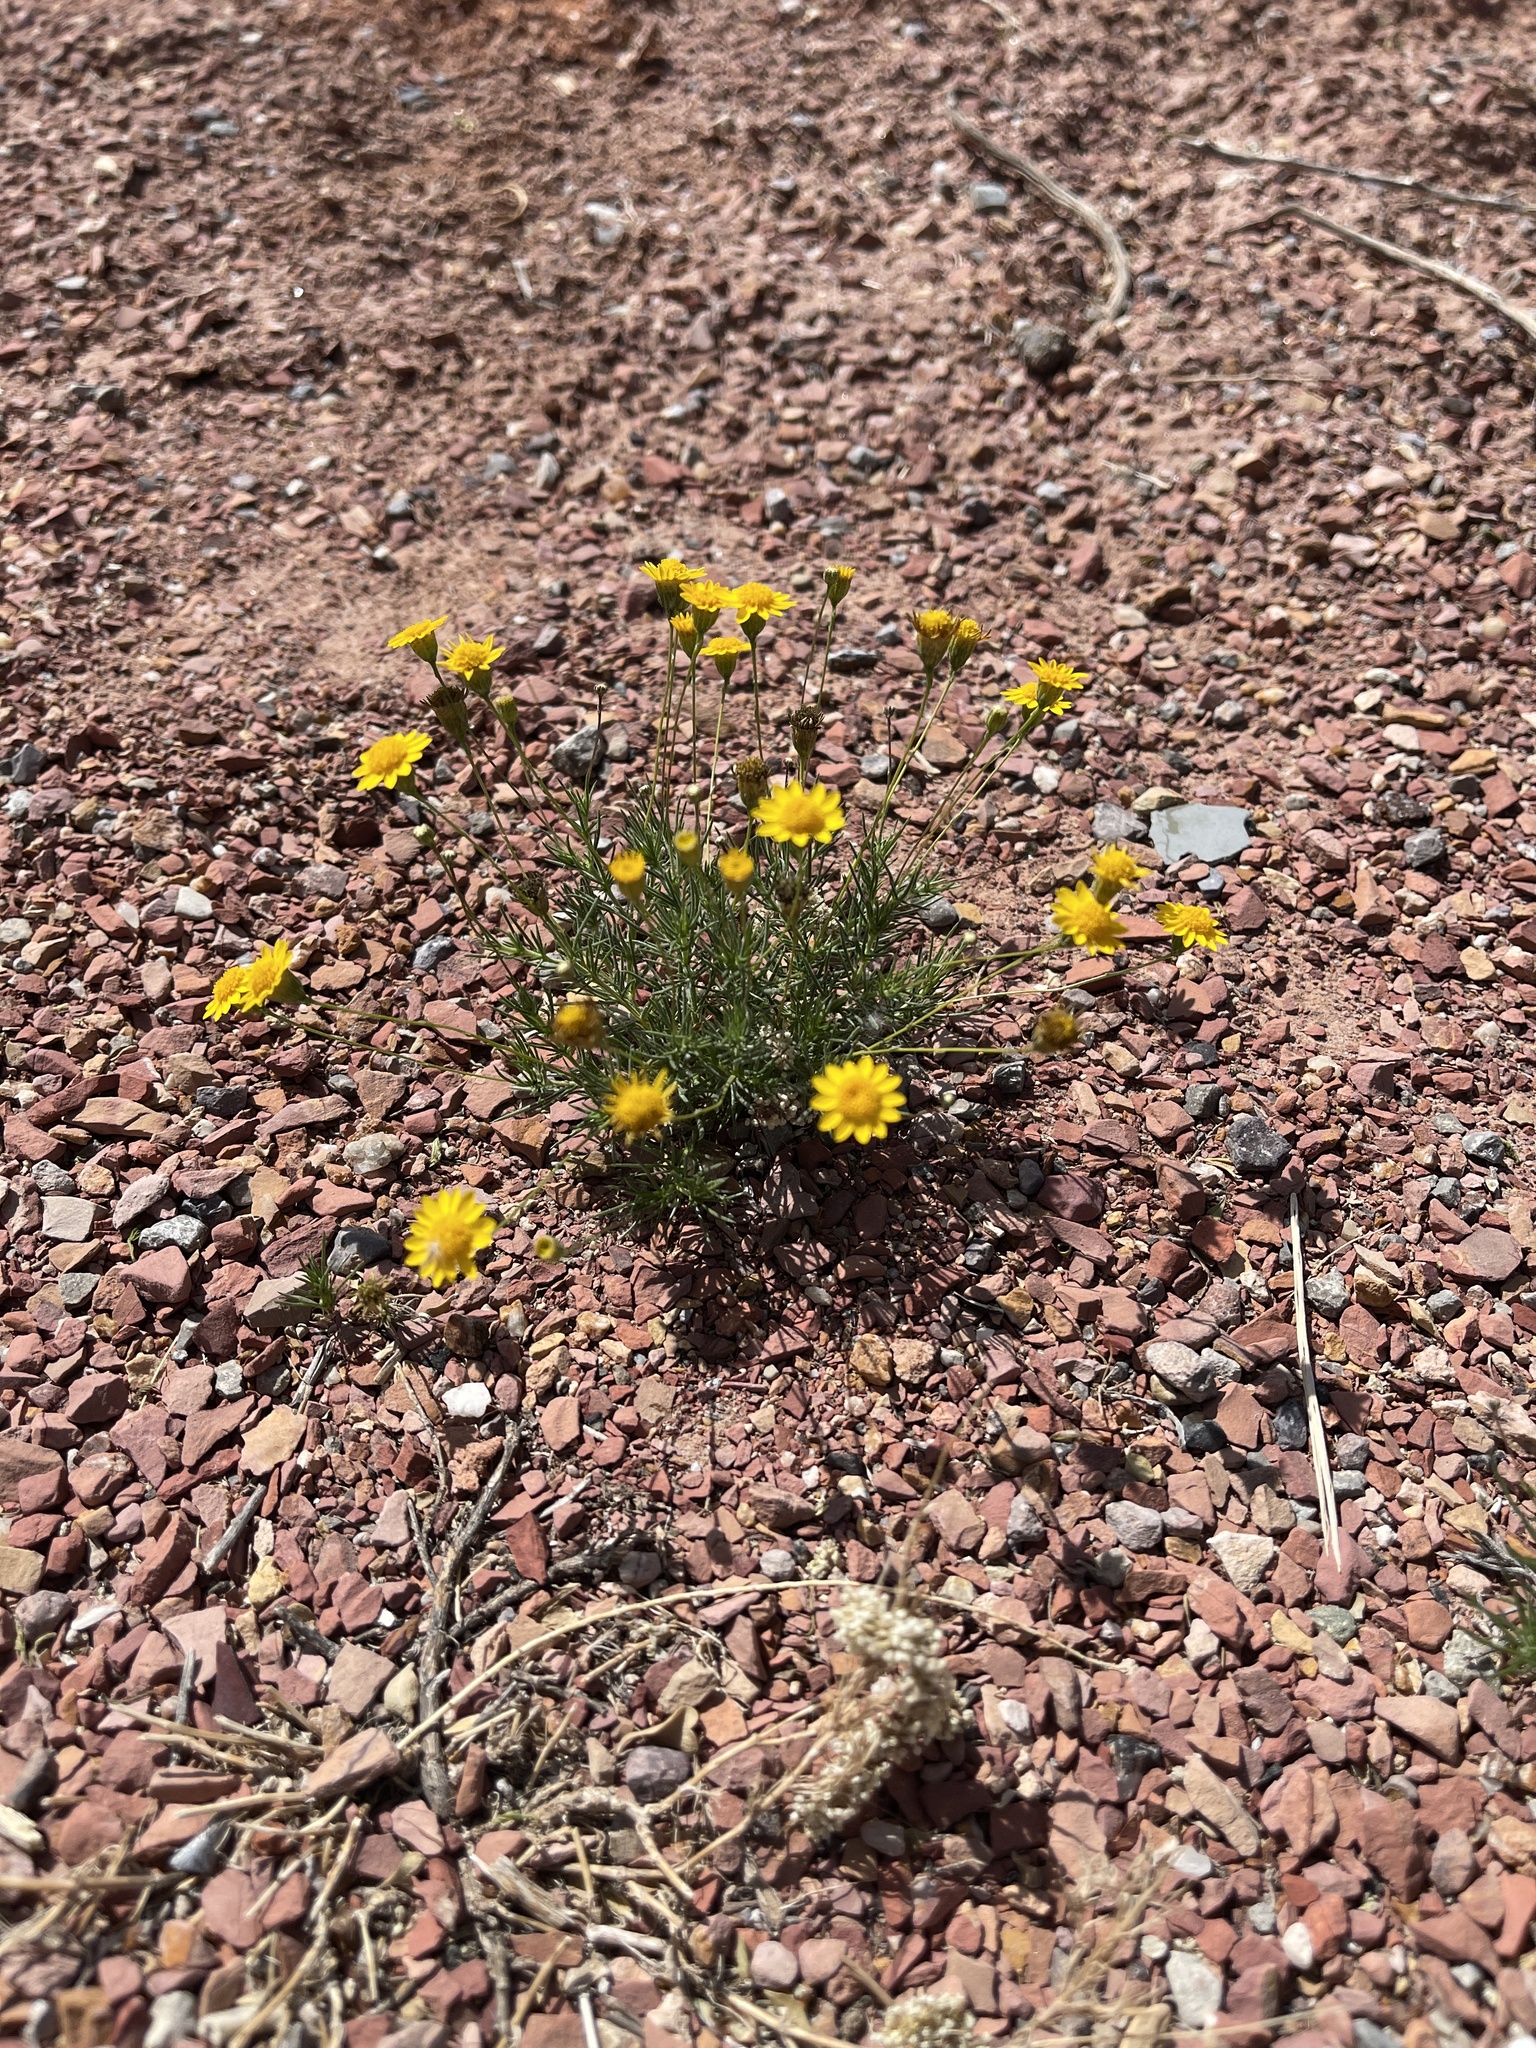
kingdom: Plantae
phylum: Tracheophyta
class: Magnoliopsida
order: Asterales
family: Asteraceae
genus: Thymophylla
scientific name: Thymophylla pentachaeta
